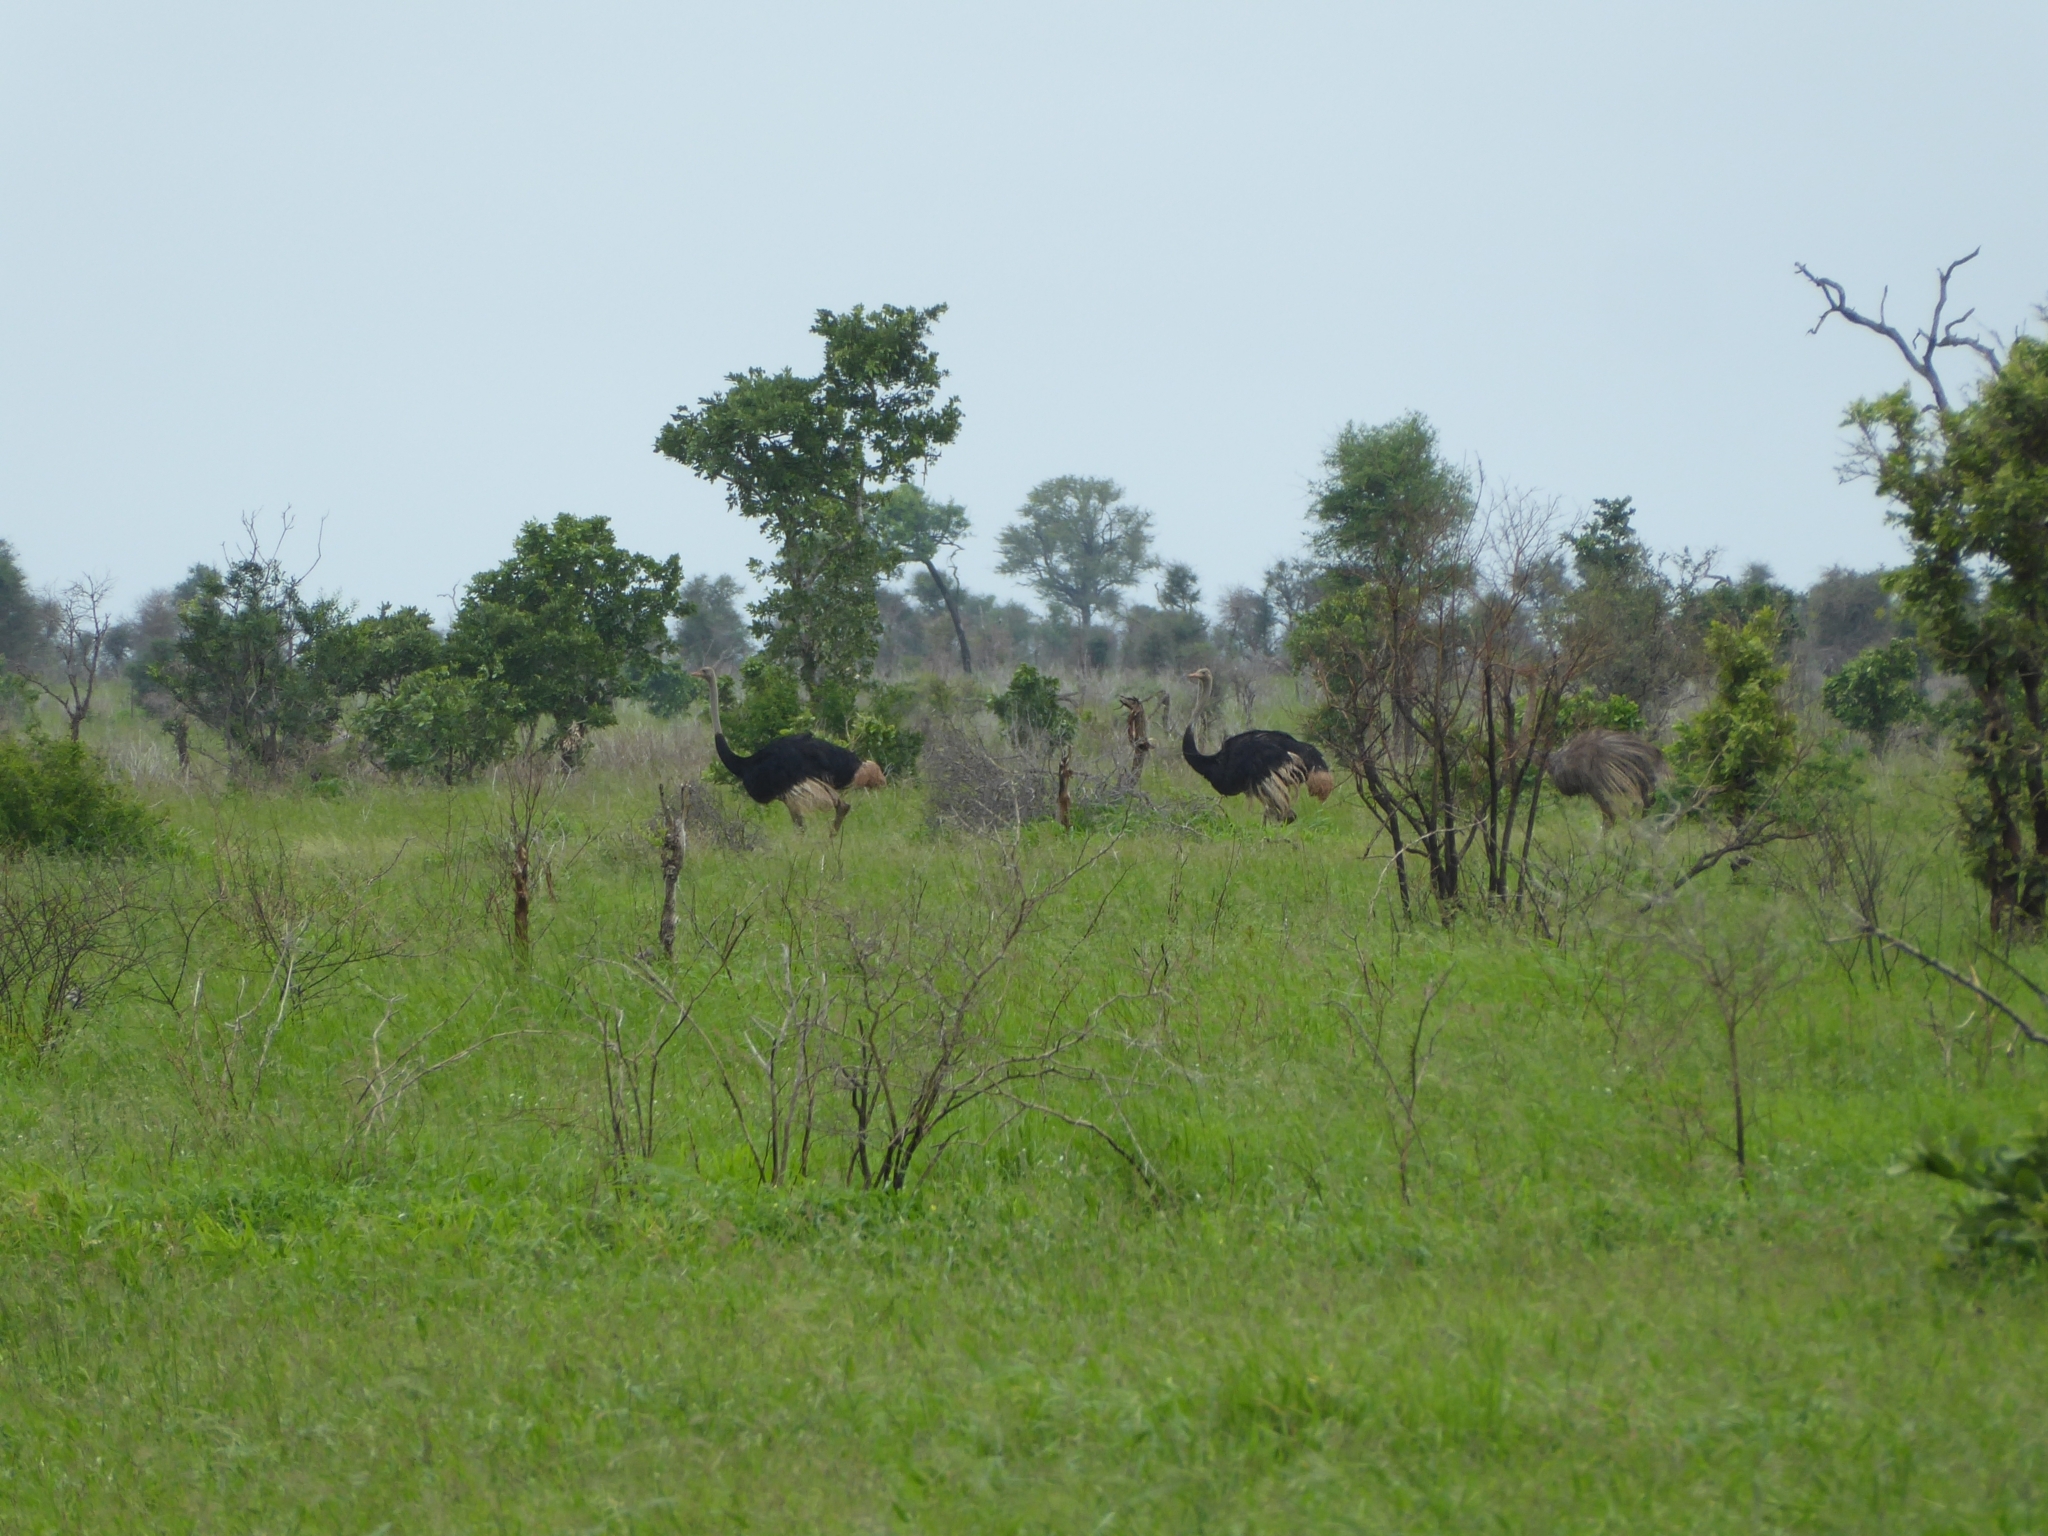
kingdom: Animalia
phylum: Chordata
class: Aves
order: Struthioniformes
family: Struthionidae
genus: Struthio
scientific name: Struthio camelus
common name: Common ostrich
